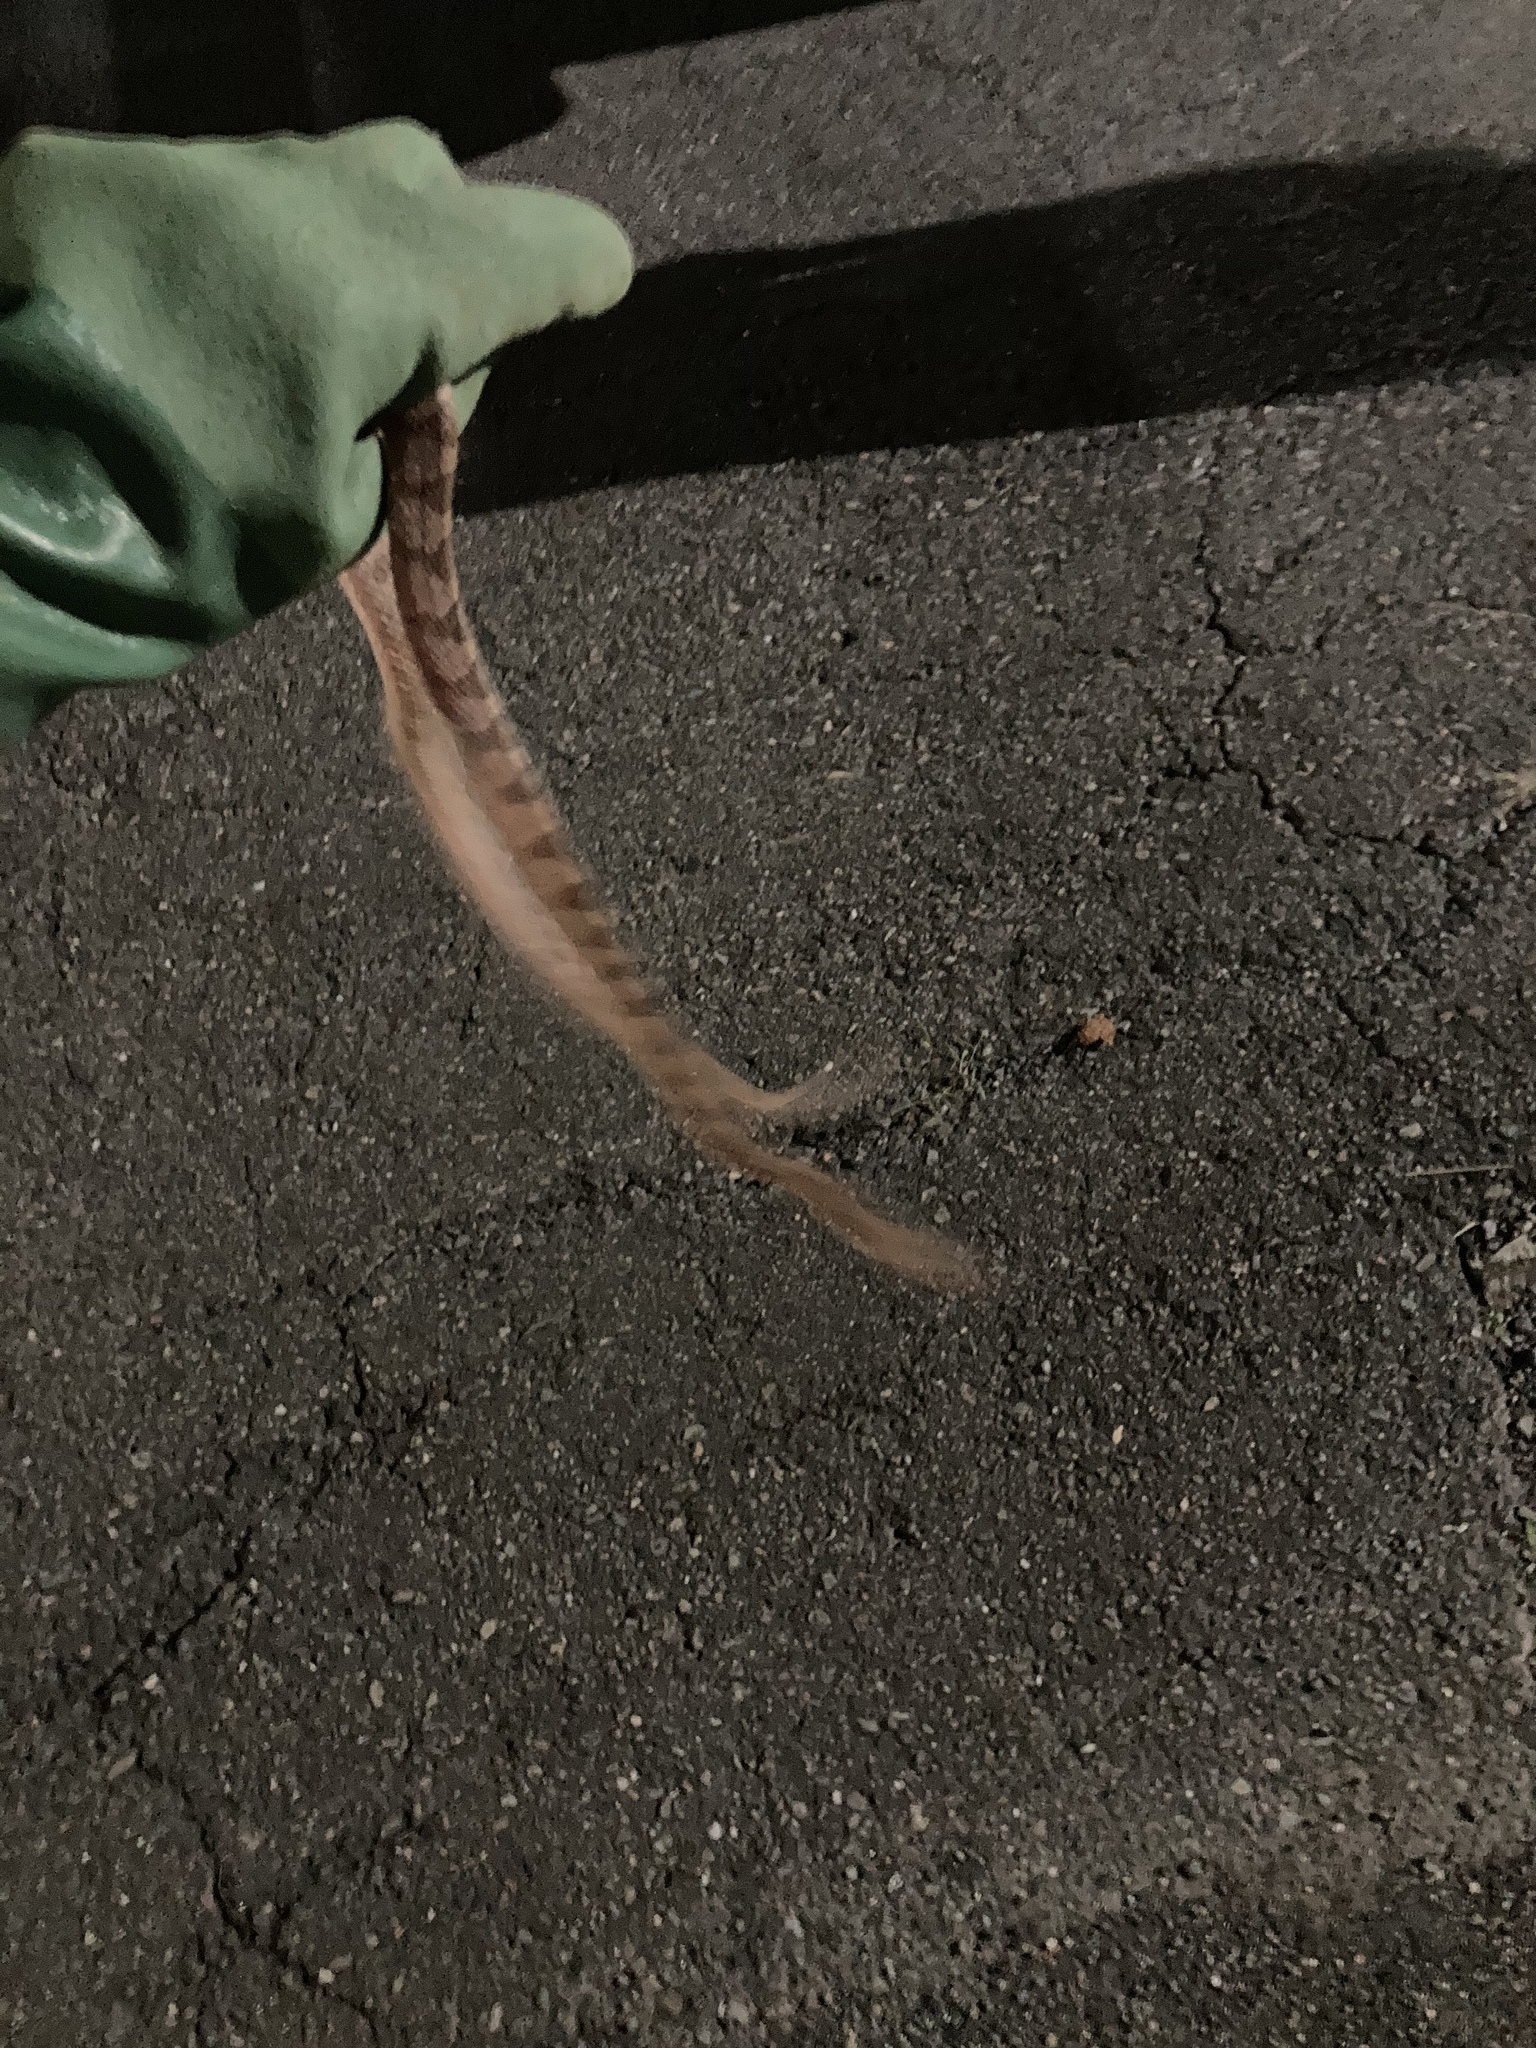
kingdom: Animalia
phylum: Chordata
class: Squamata
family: Colubridae
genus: Boiga
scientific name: Boiga kraepelini
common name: Kelung cat snake
